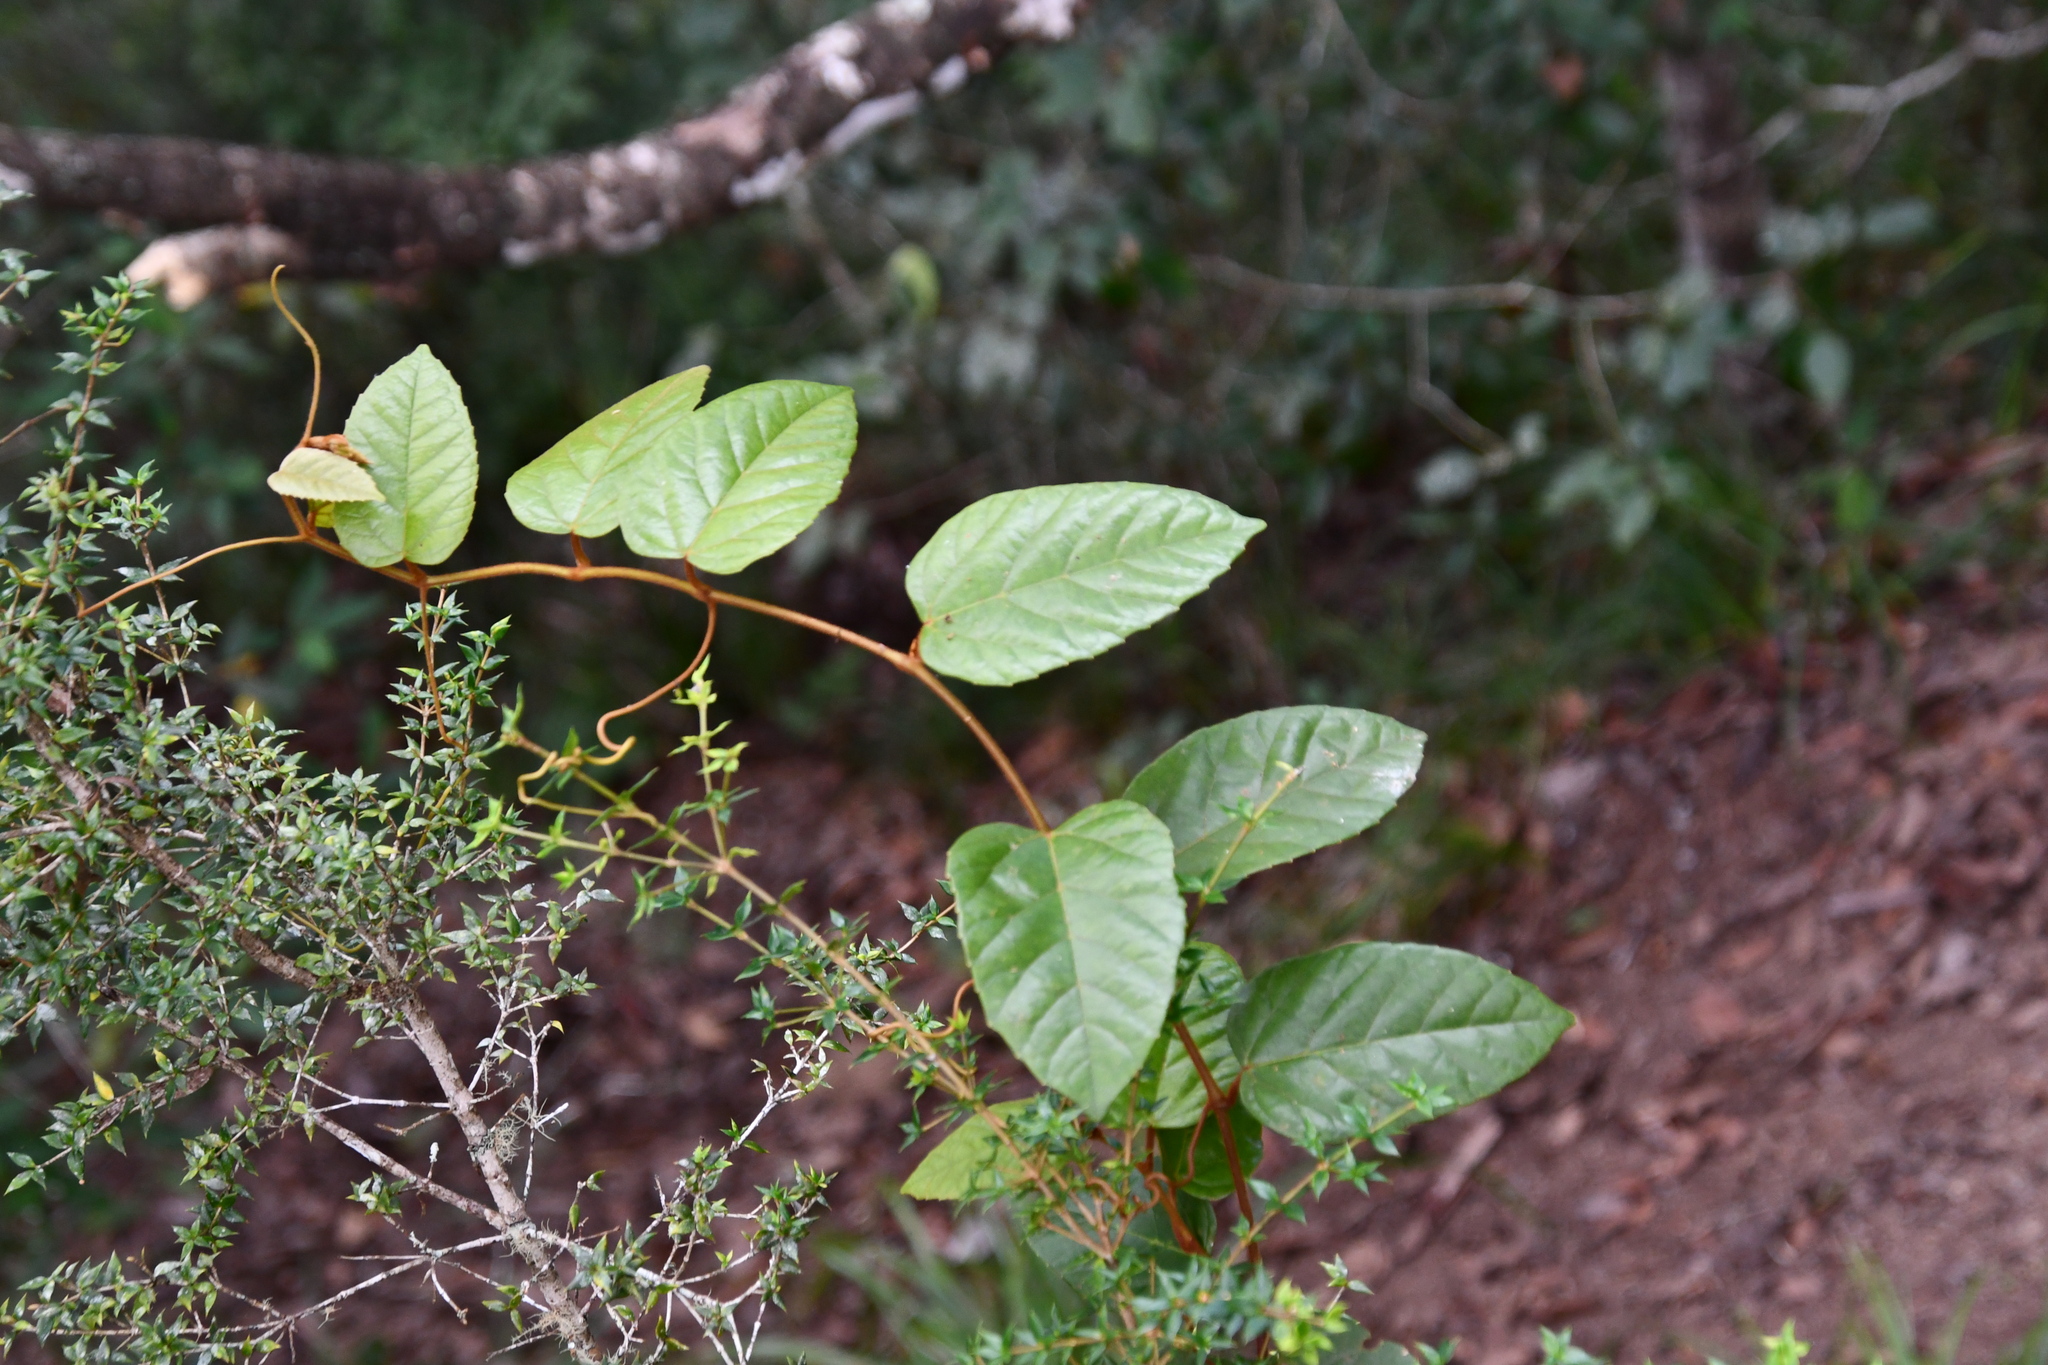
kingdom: Plantae
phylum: Tracheophyta
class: Magnoliopsida
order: Vitales
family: Vitaceae
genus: Cissus
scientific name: Cissus antarctica
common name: Kangaroo vine
